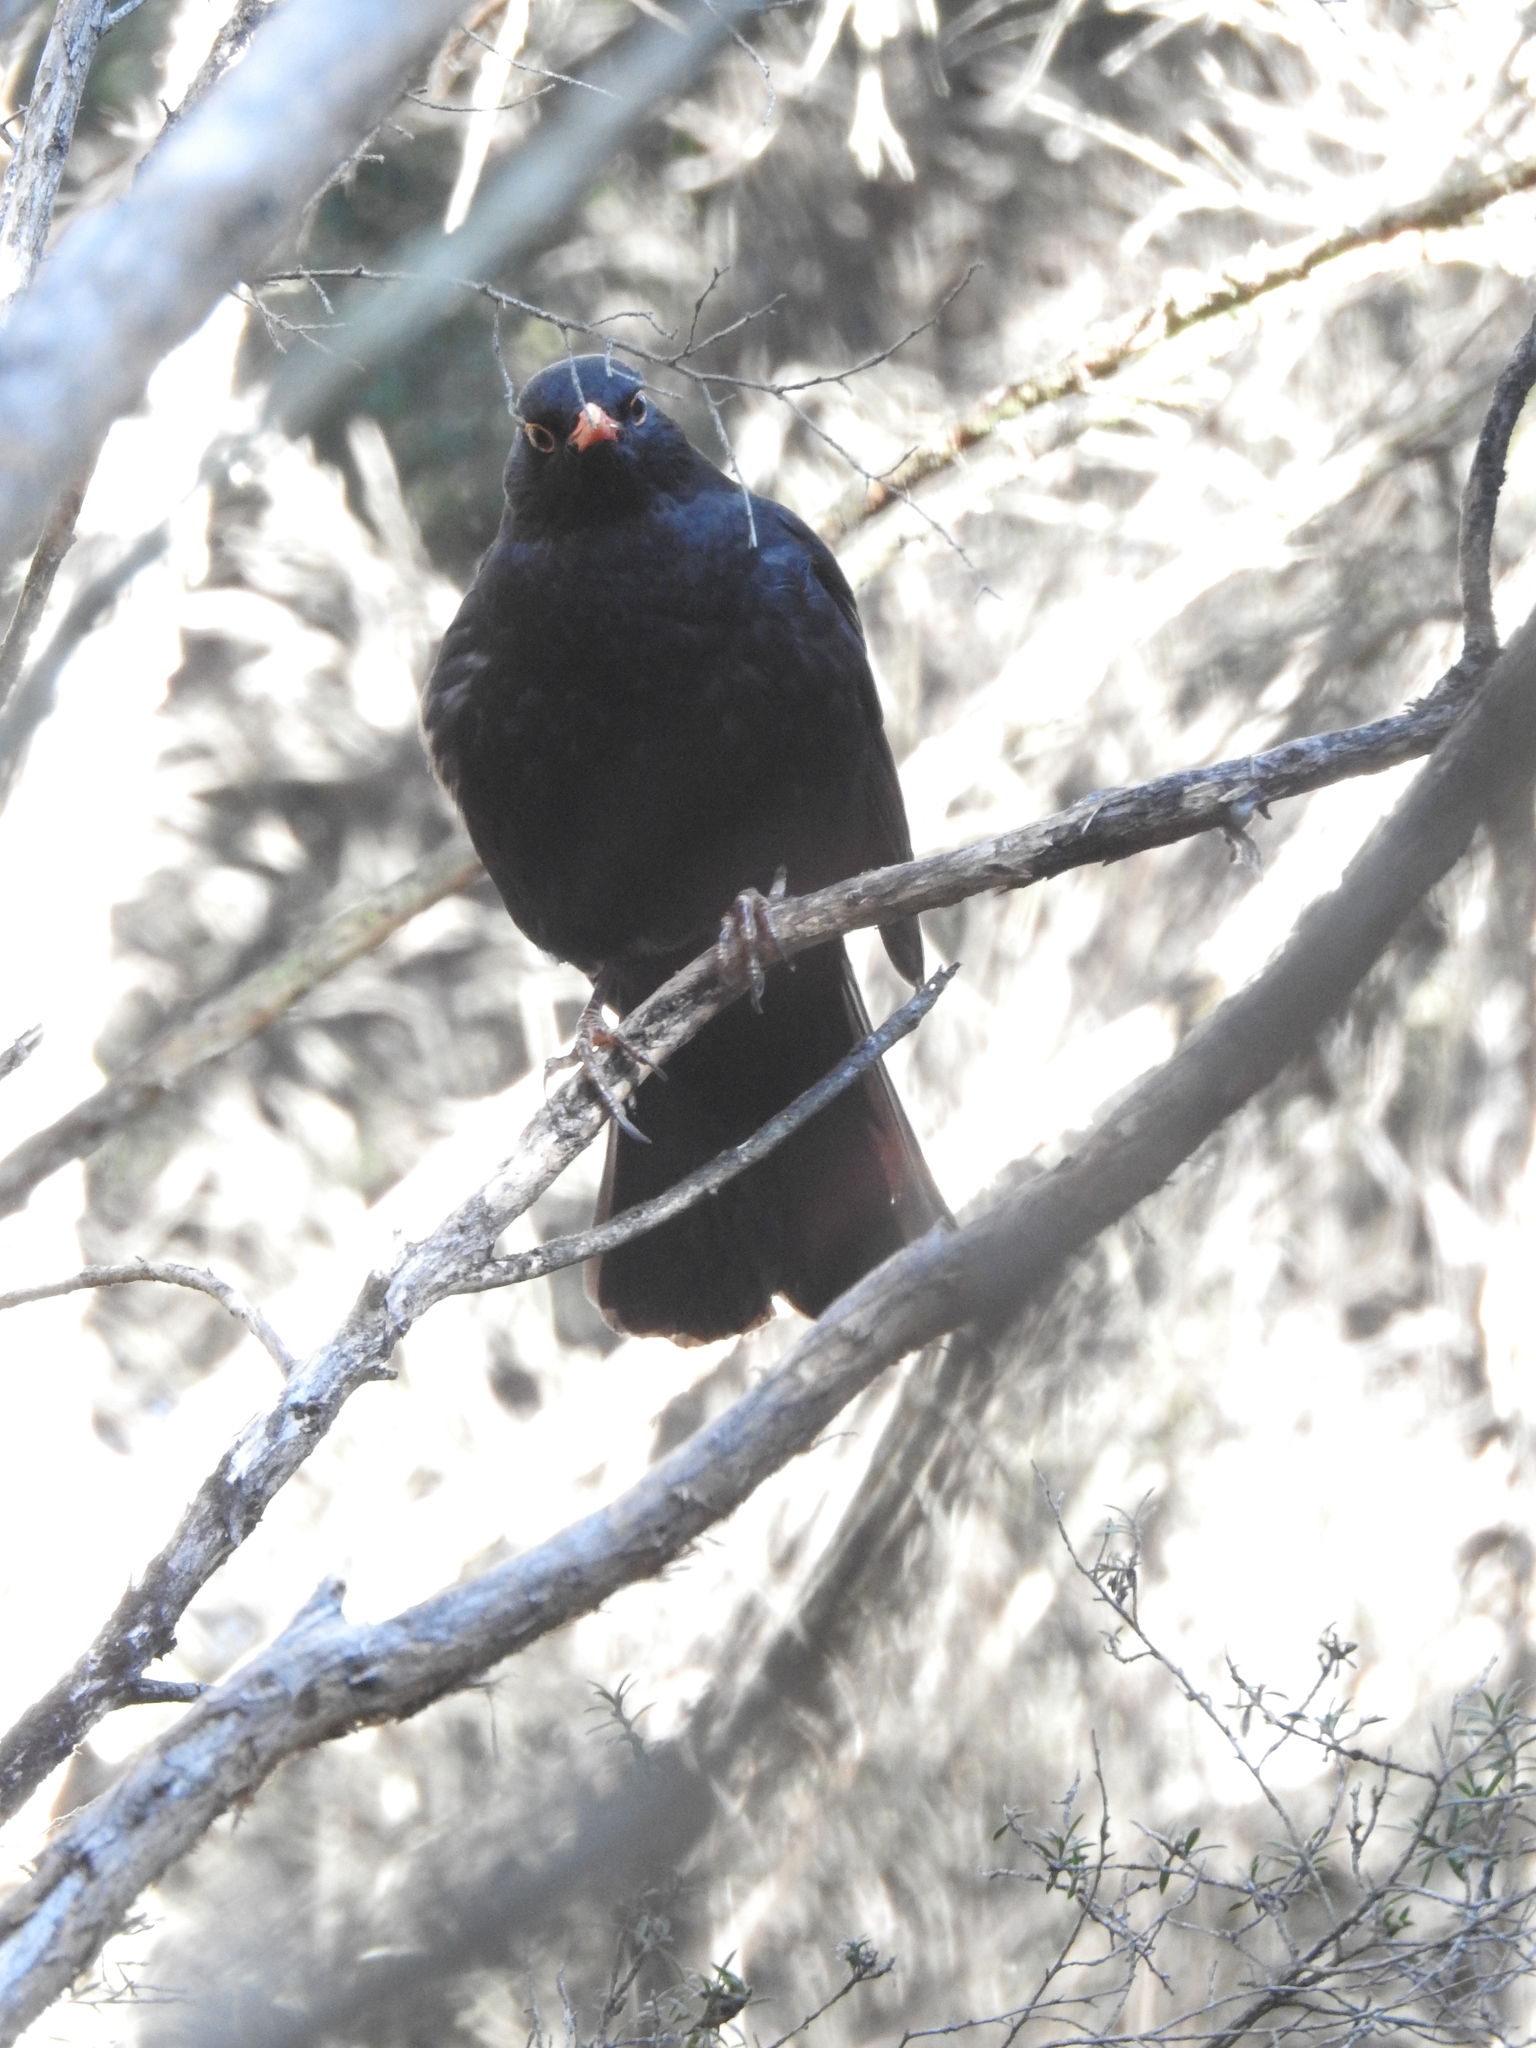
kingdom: Animalia
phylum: Chordata
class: Aves
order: Passeriformes
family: Turdidae
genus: Turdus
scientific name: Turdus merula
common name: Common blackbird
